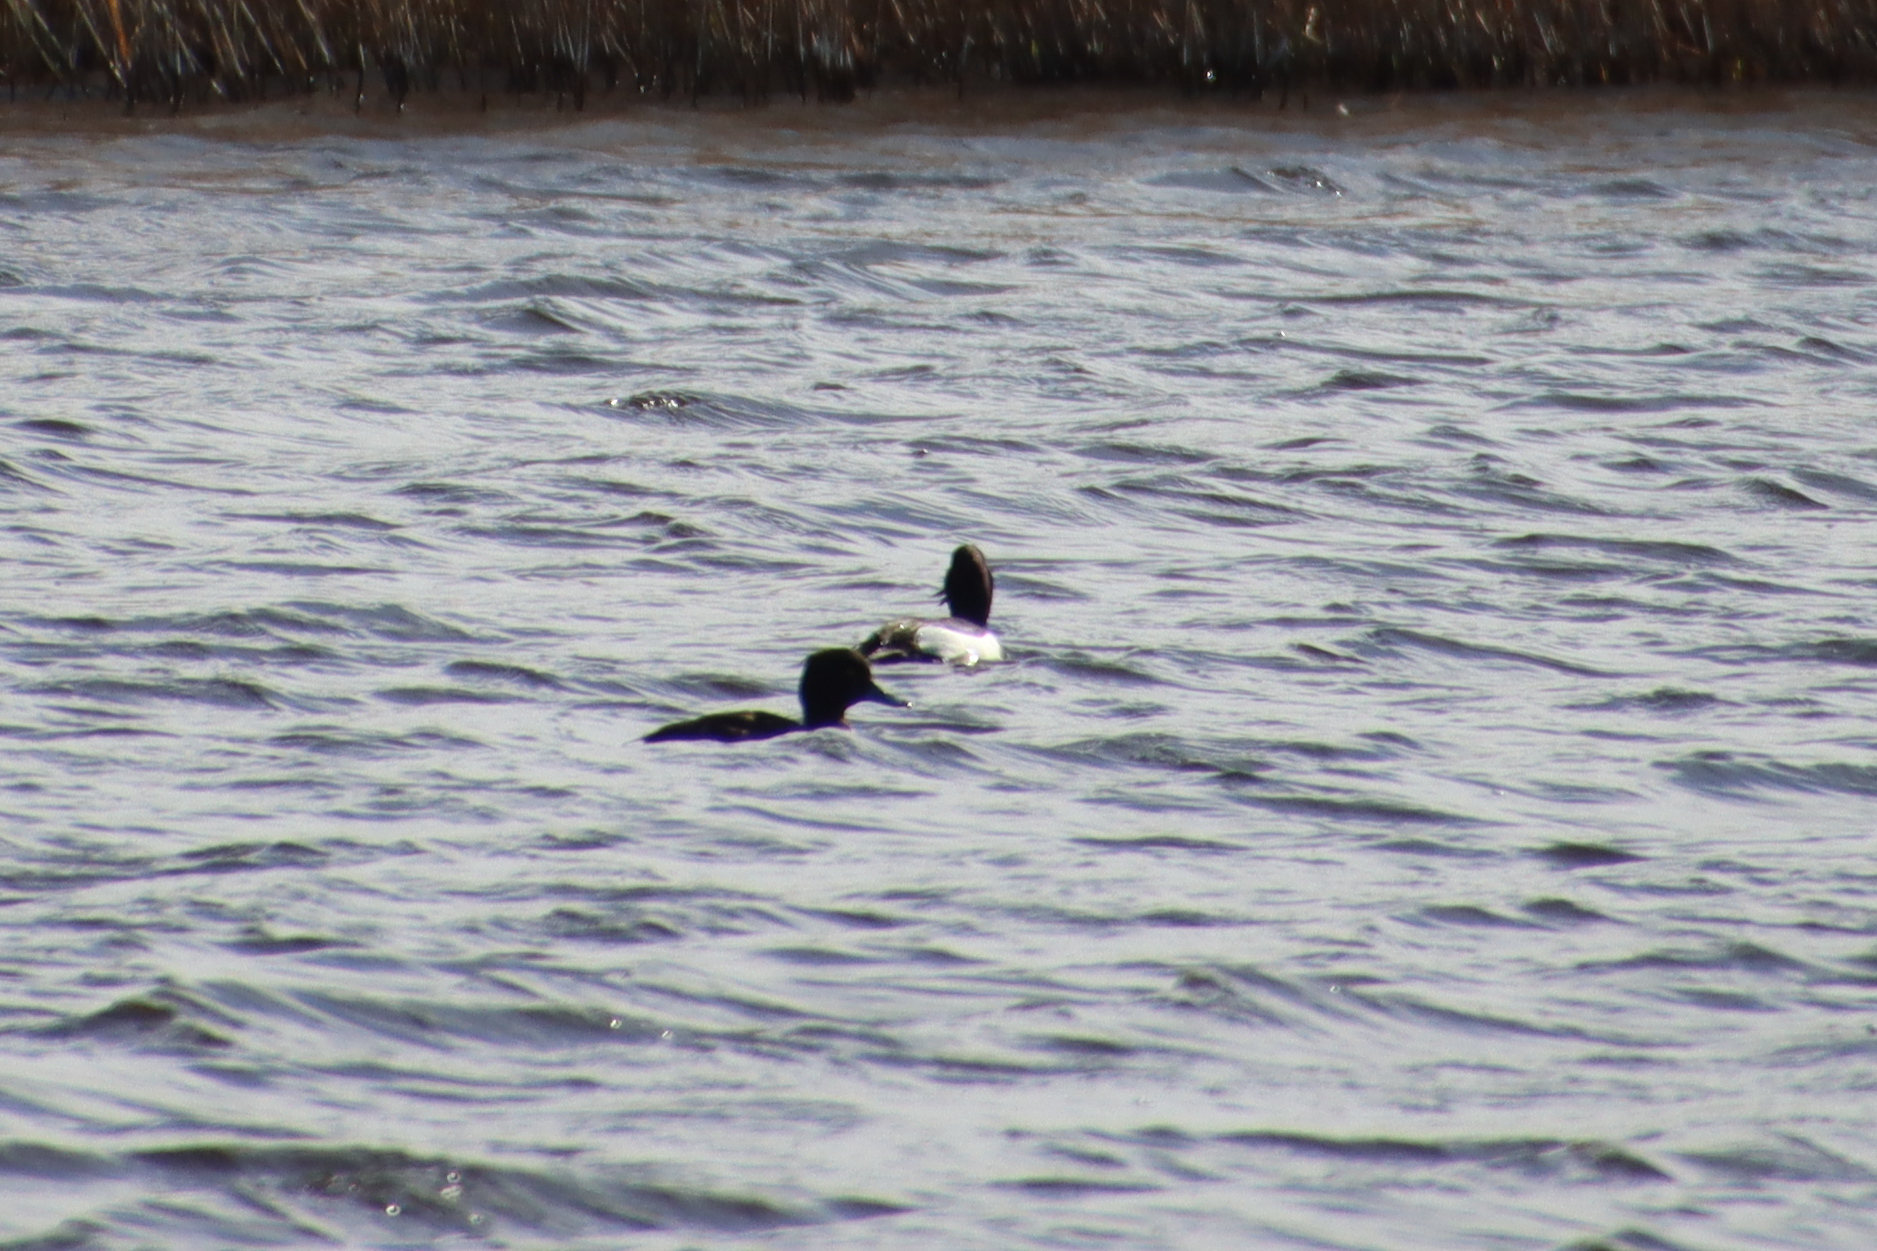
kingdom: Animalia
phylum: Chordata
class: Aves
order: Anseriformes
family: Anatidae
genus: Aythya
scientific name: Aythya fuligula
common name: Tufted duck
